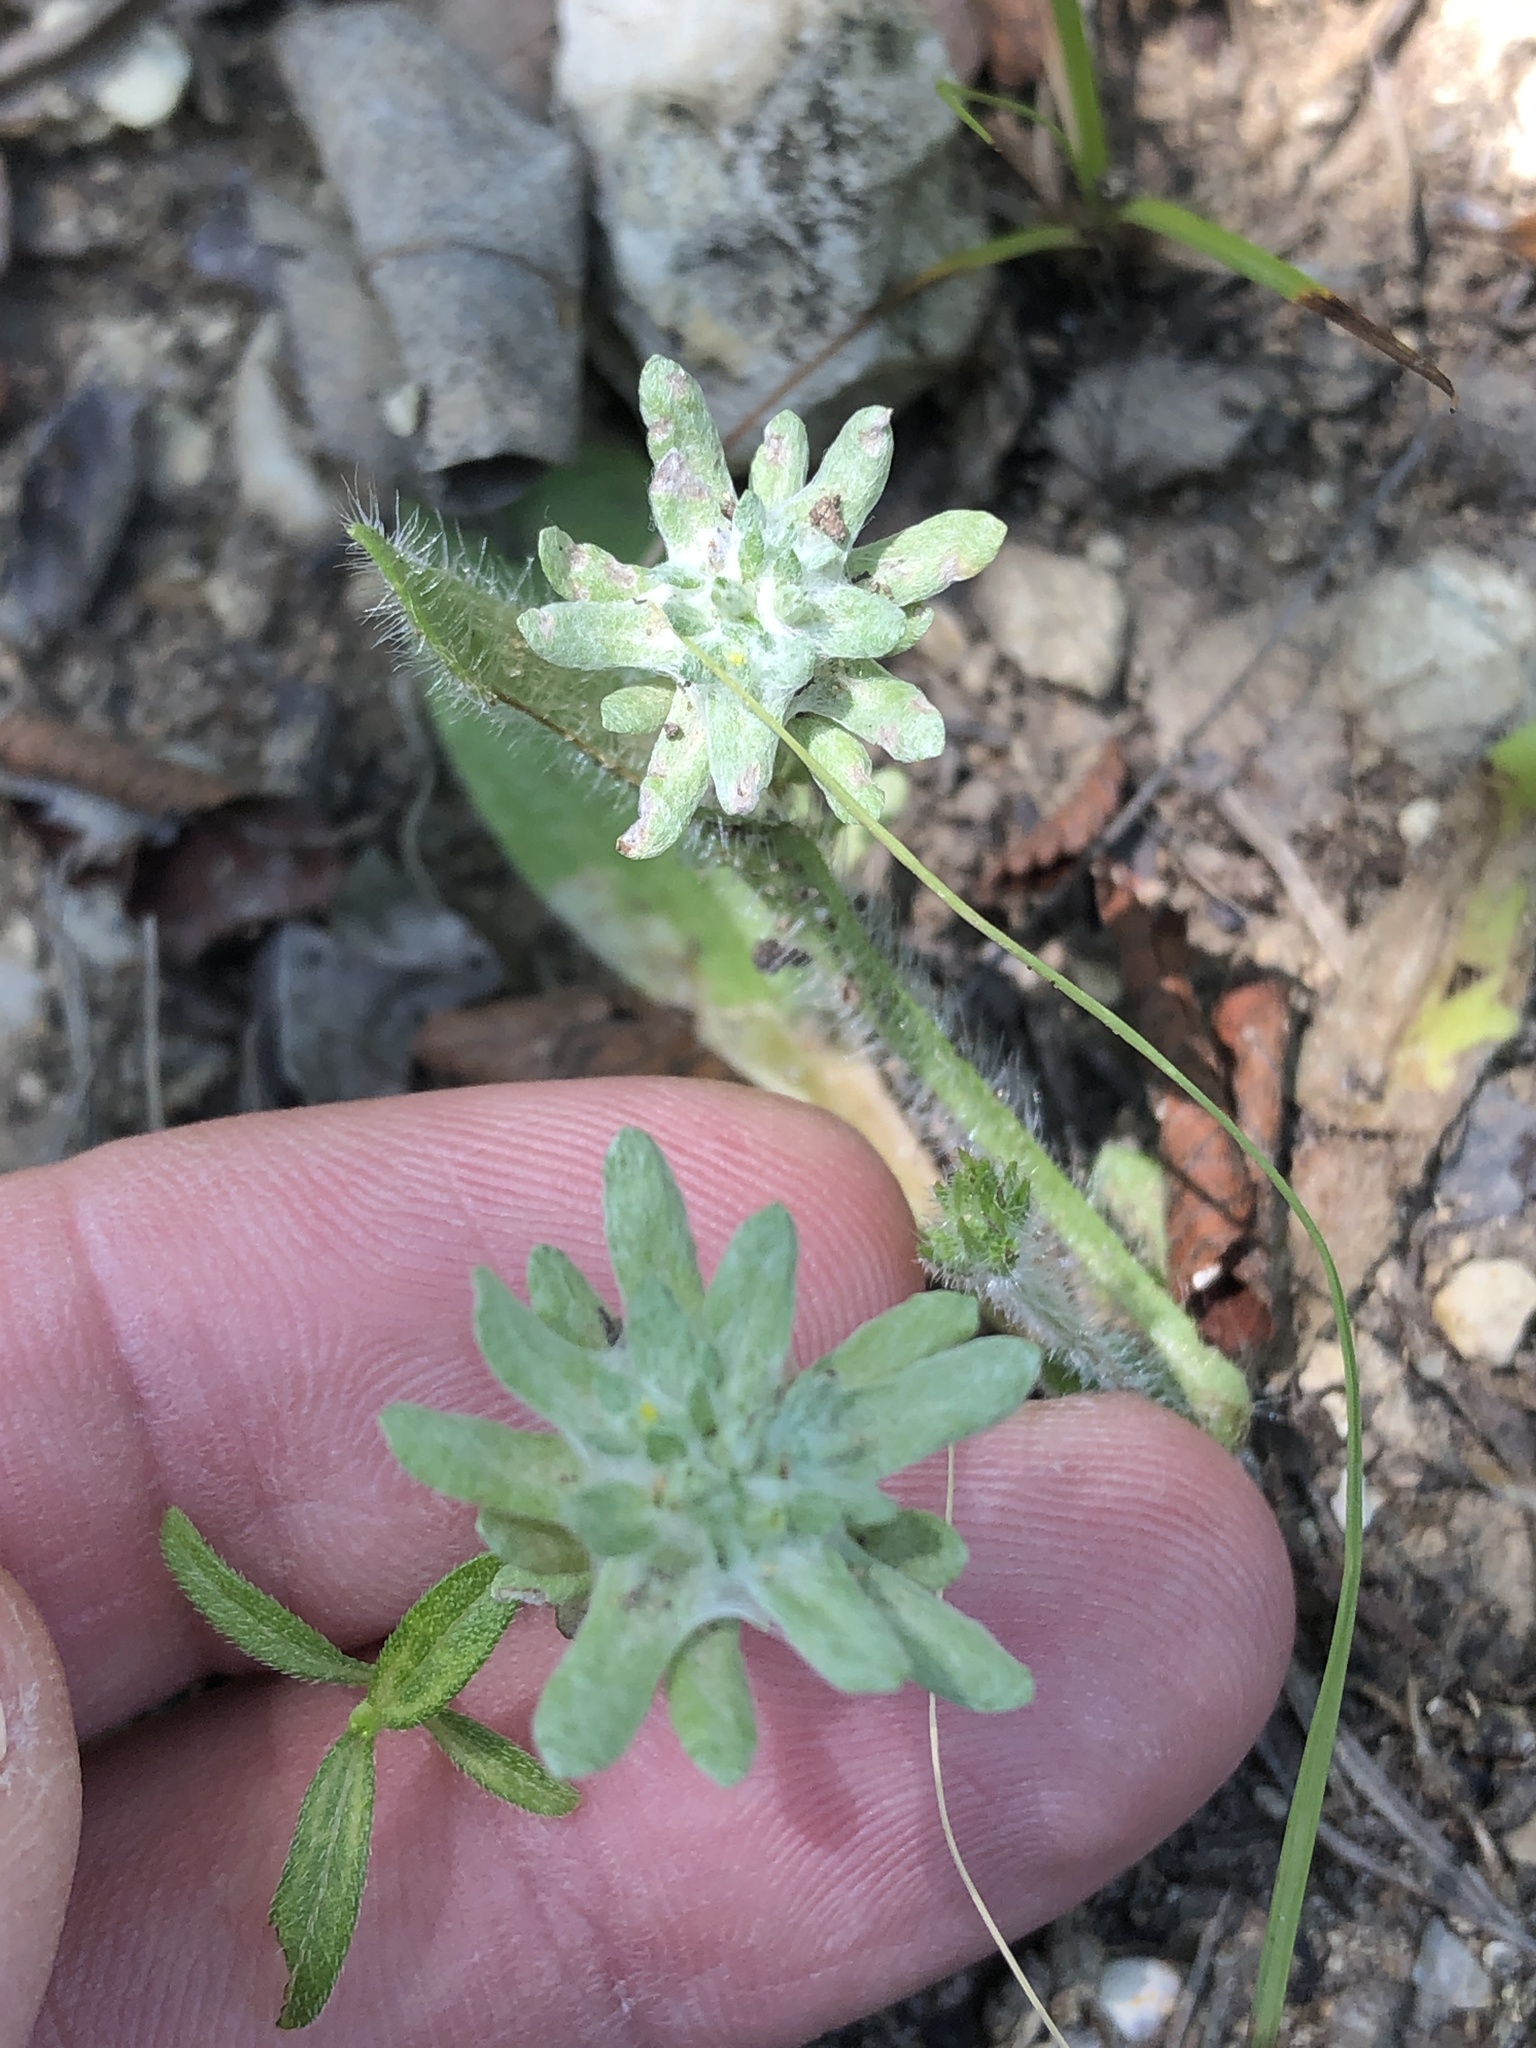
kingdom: Plantae
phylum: Tracheophyta
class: Magnoliopsida
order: Asterales
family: Asteraceae
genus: Diaperia
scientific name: Diaperia prolifera
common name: Big-head rabbit-tobacco
